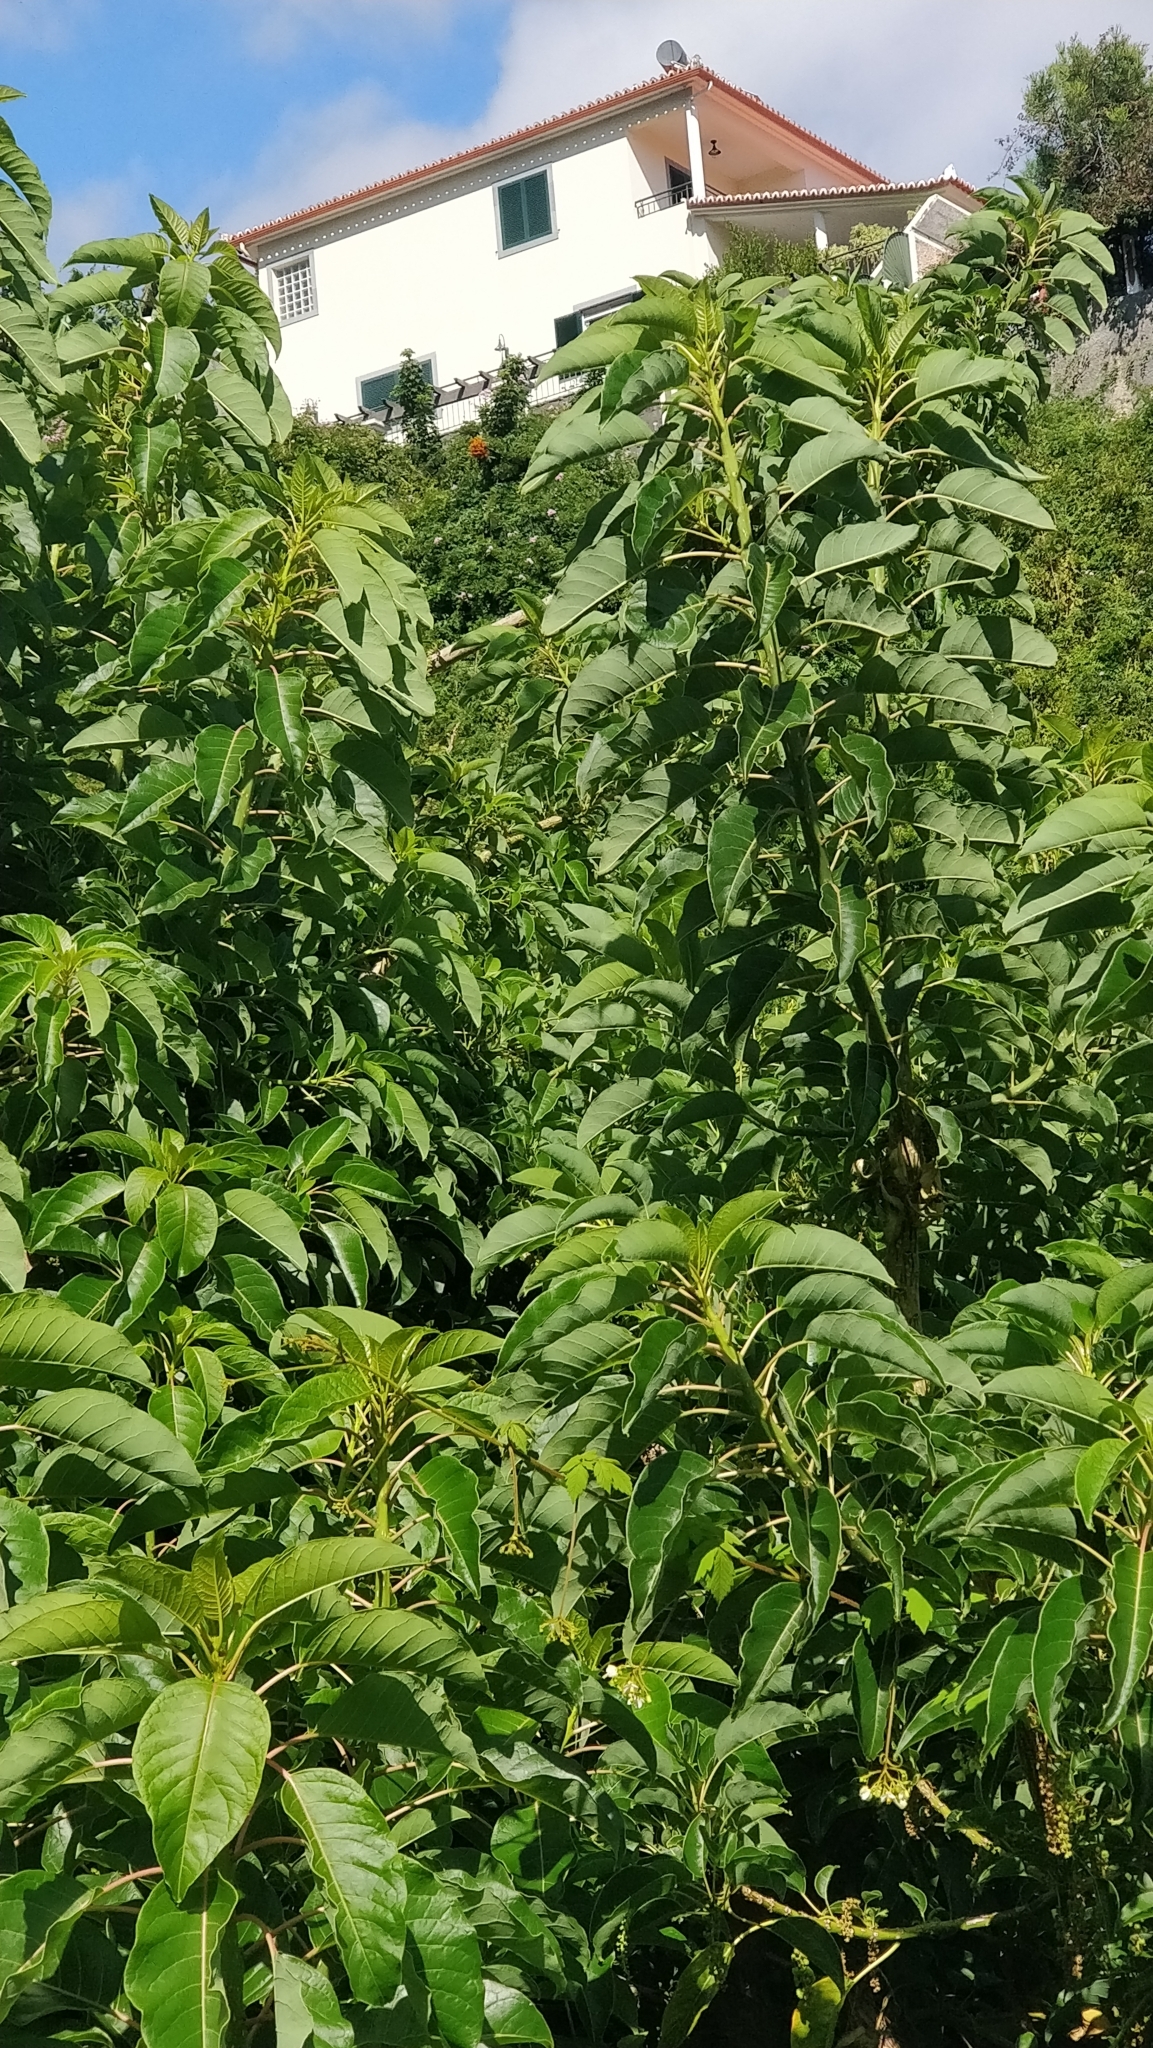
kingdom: Plantae
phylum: Tracheophyta
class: Magnoliopsida
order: Caryophyllales
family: Phytolaccaceae
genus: Phytolacca
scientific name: Phytolacca dioica
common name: Pokeweed
